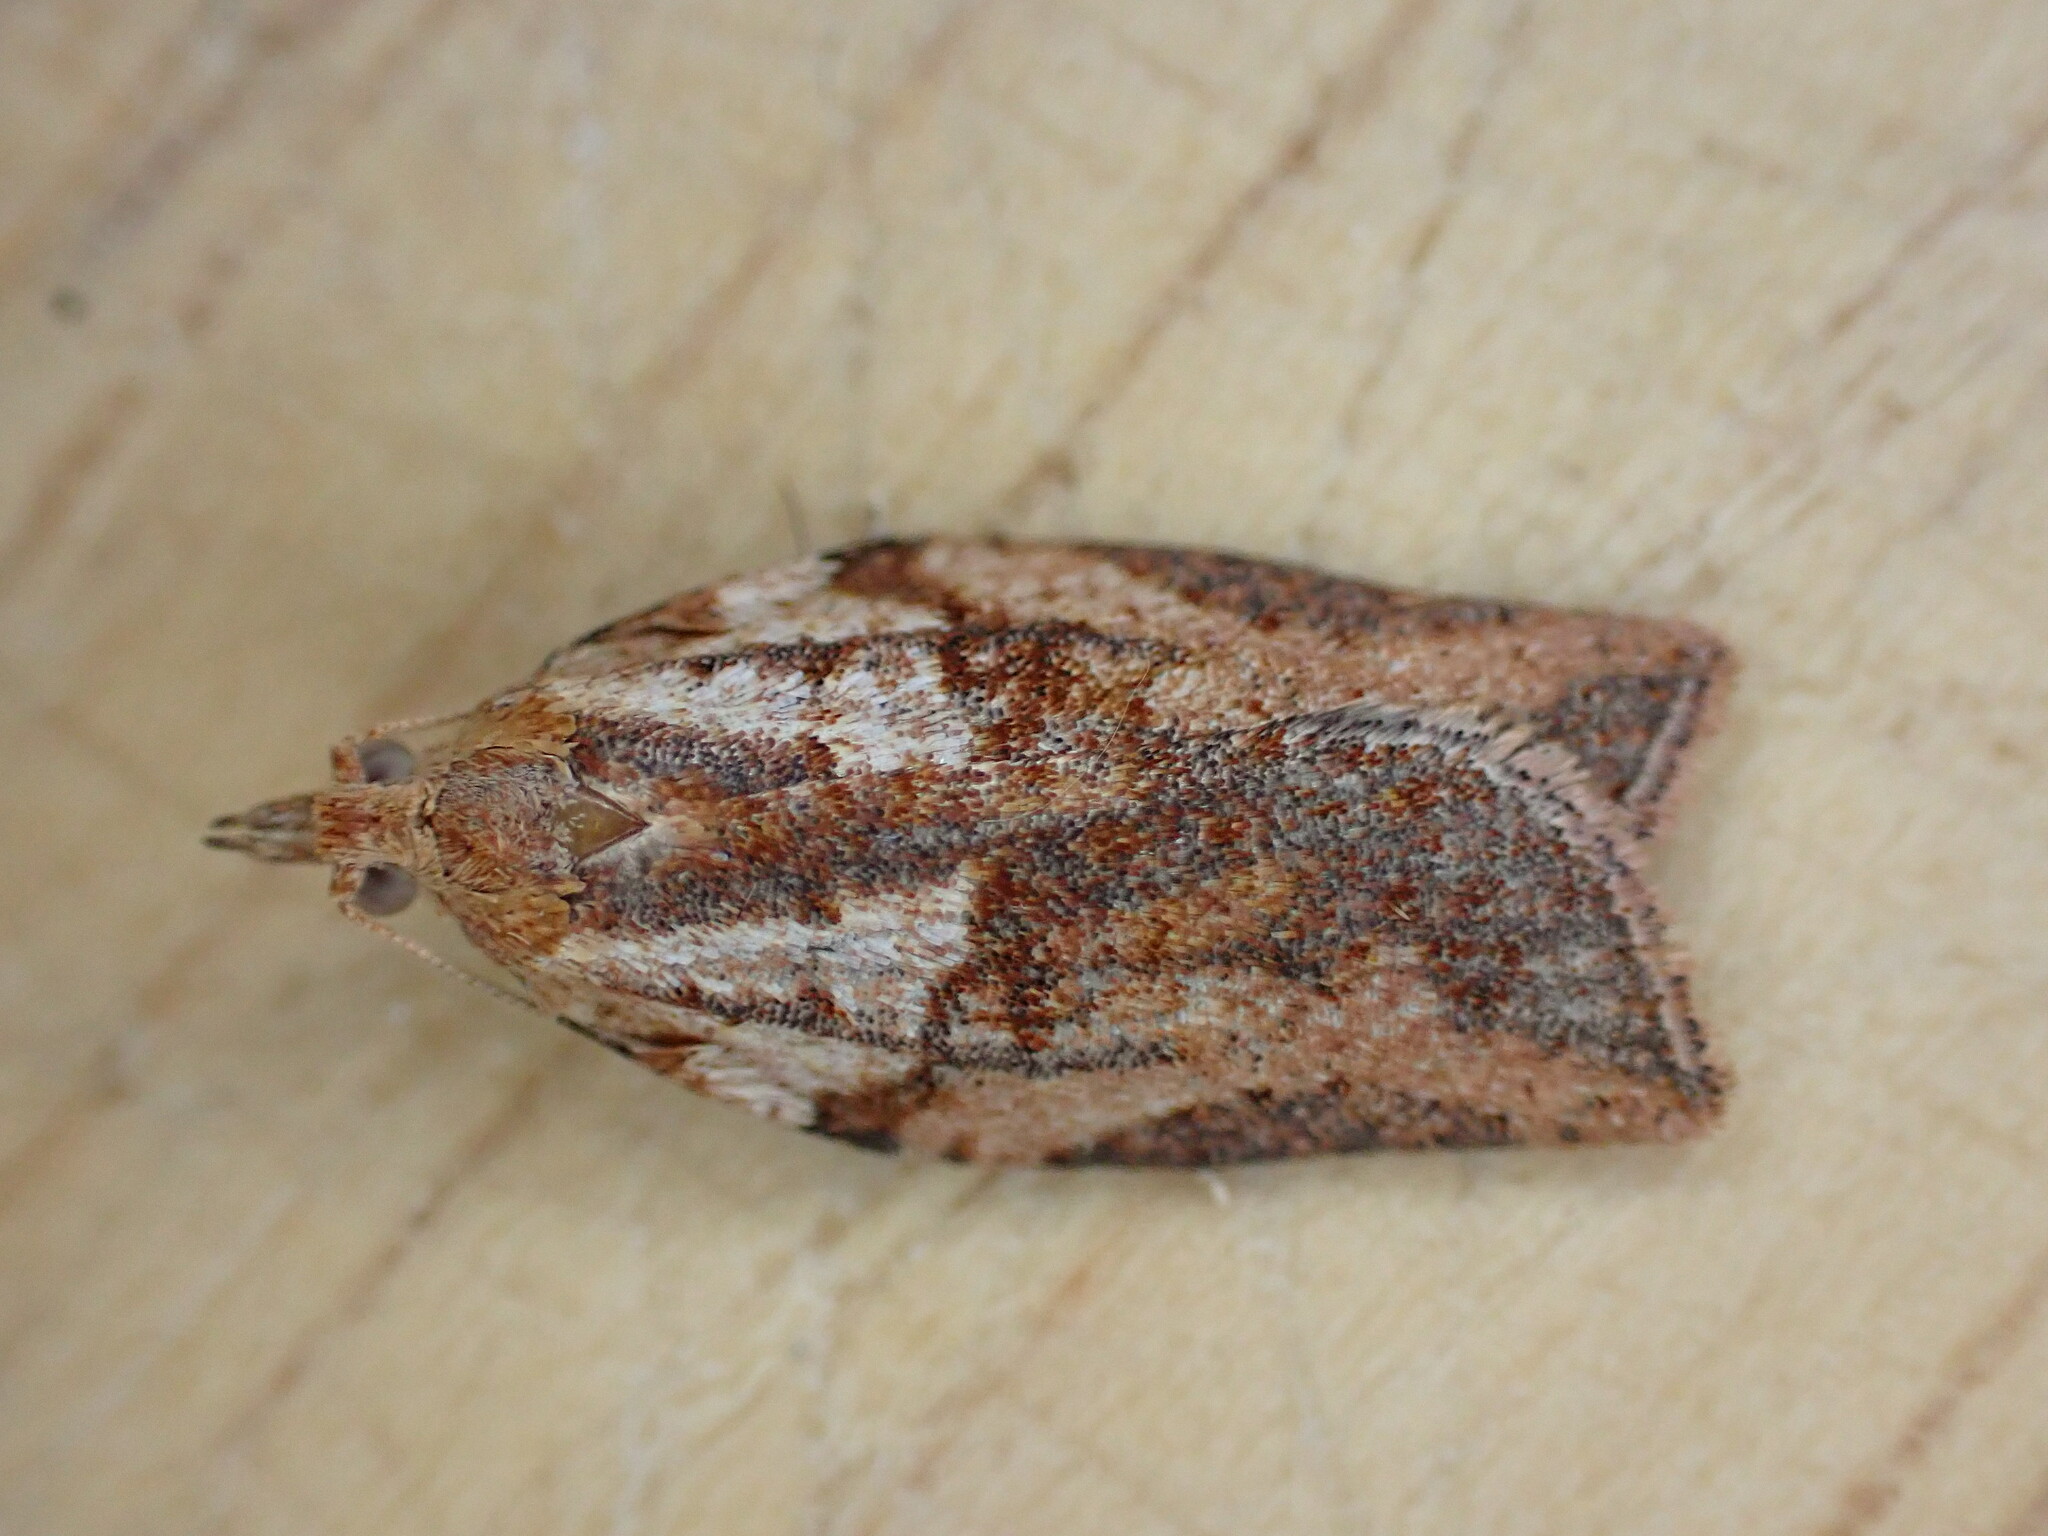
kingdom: Animalia
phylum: Arthropoda
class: Insecta
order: Lepidoptera
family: Tortricidae
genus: Epiphyas
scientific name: Epiphyas postvittana
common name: Light brown apple moth
